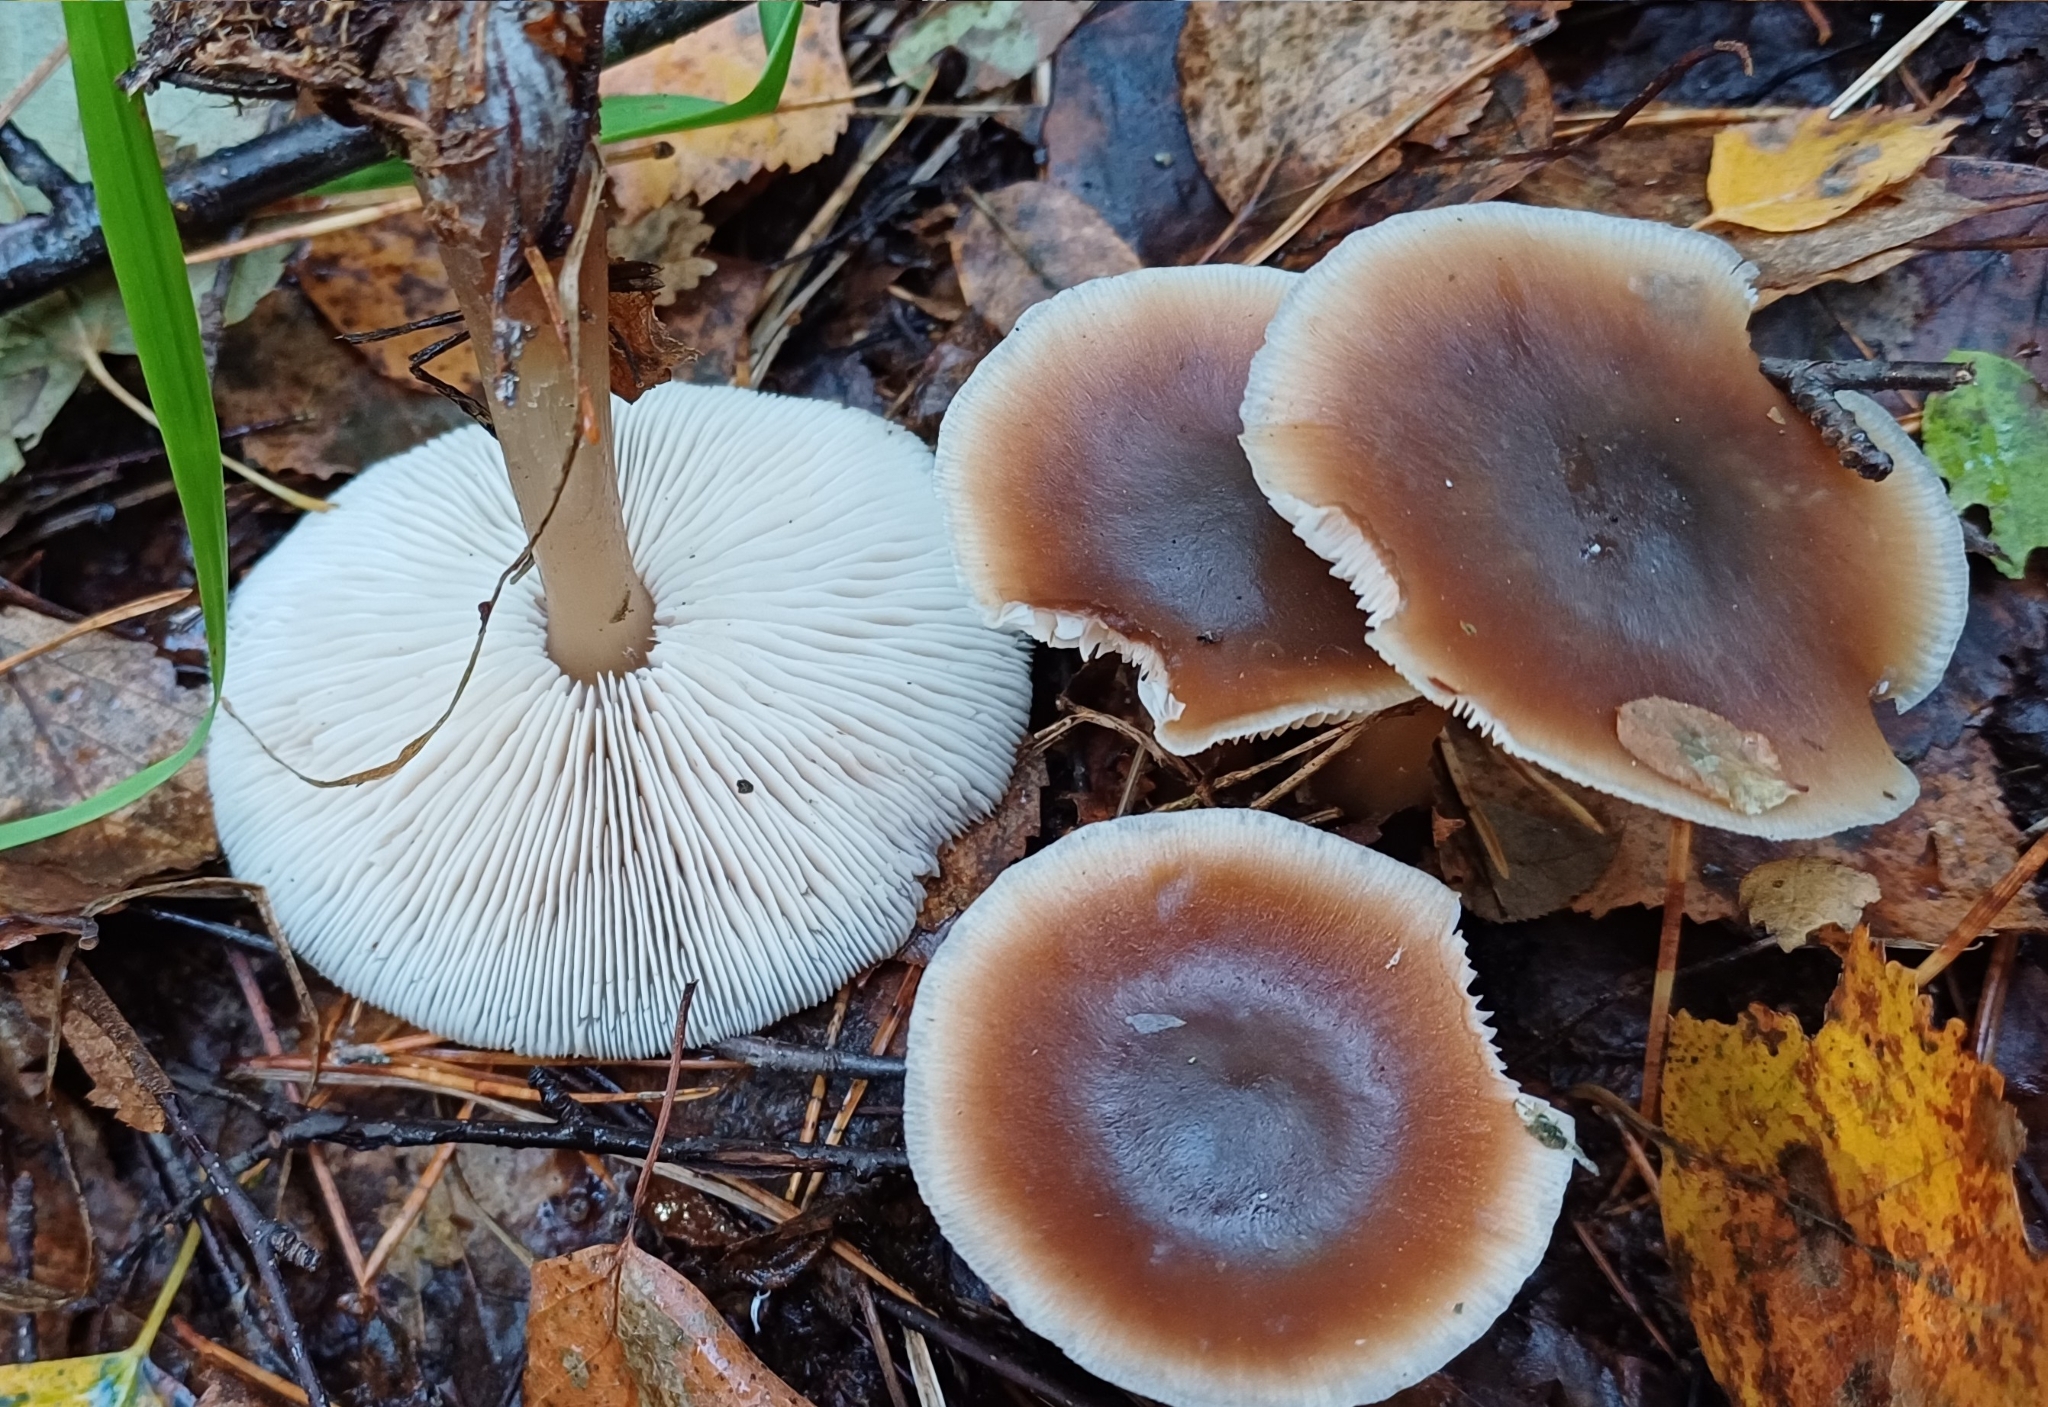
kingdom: Fungi
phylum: Basidiomycota
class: Agaricomycetes
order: Agaricales
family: Omphalotaceae
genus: Rhodocollybia
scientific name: Rhodocollybia butyracea
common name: Butter cap
